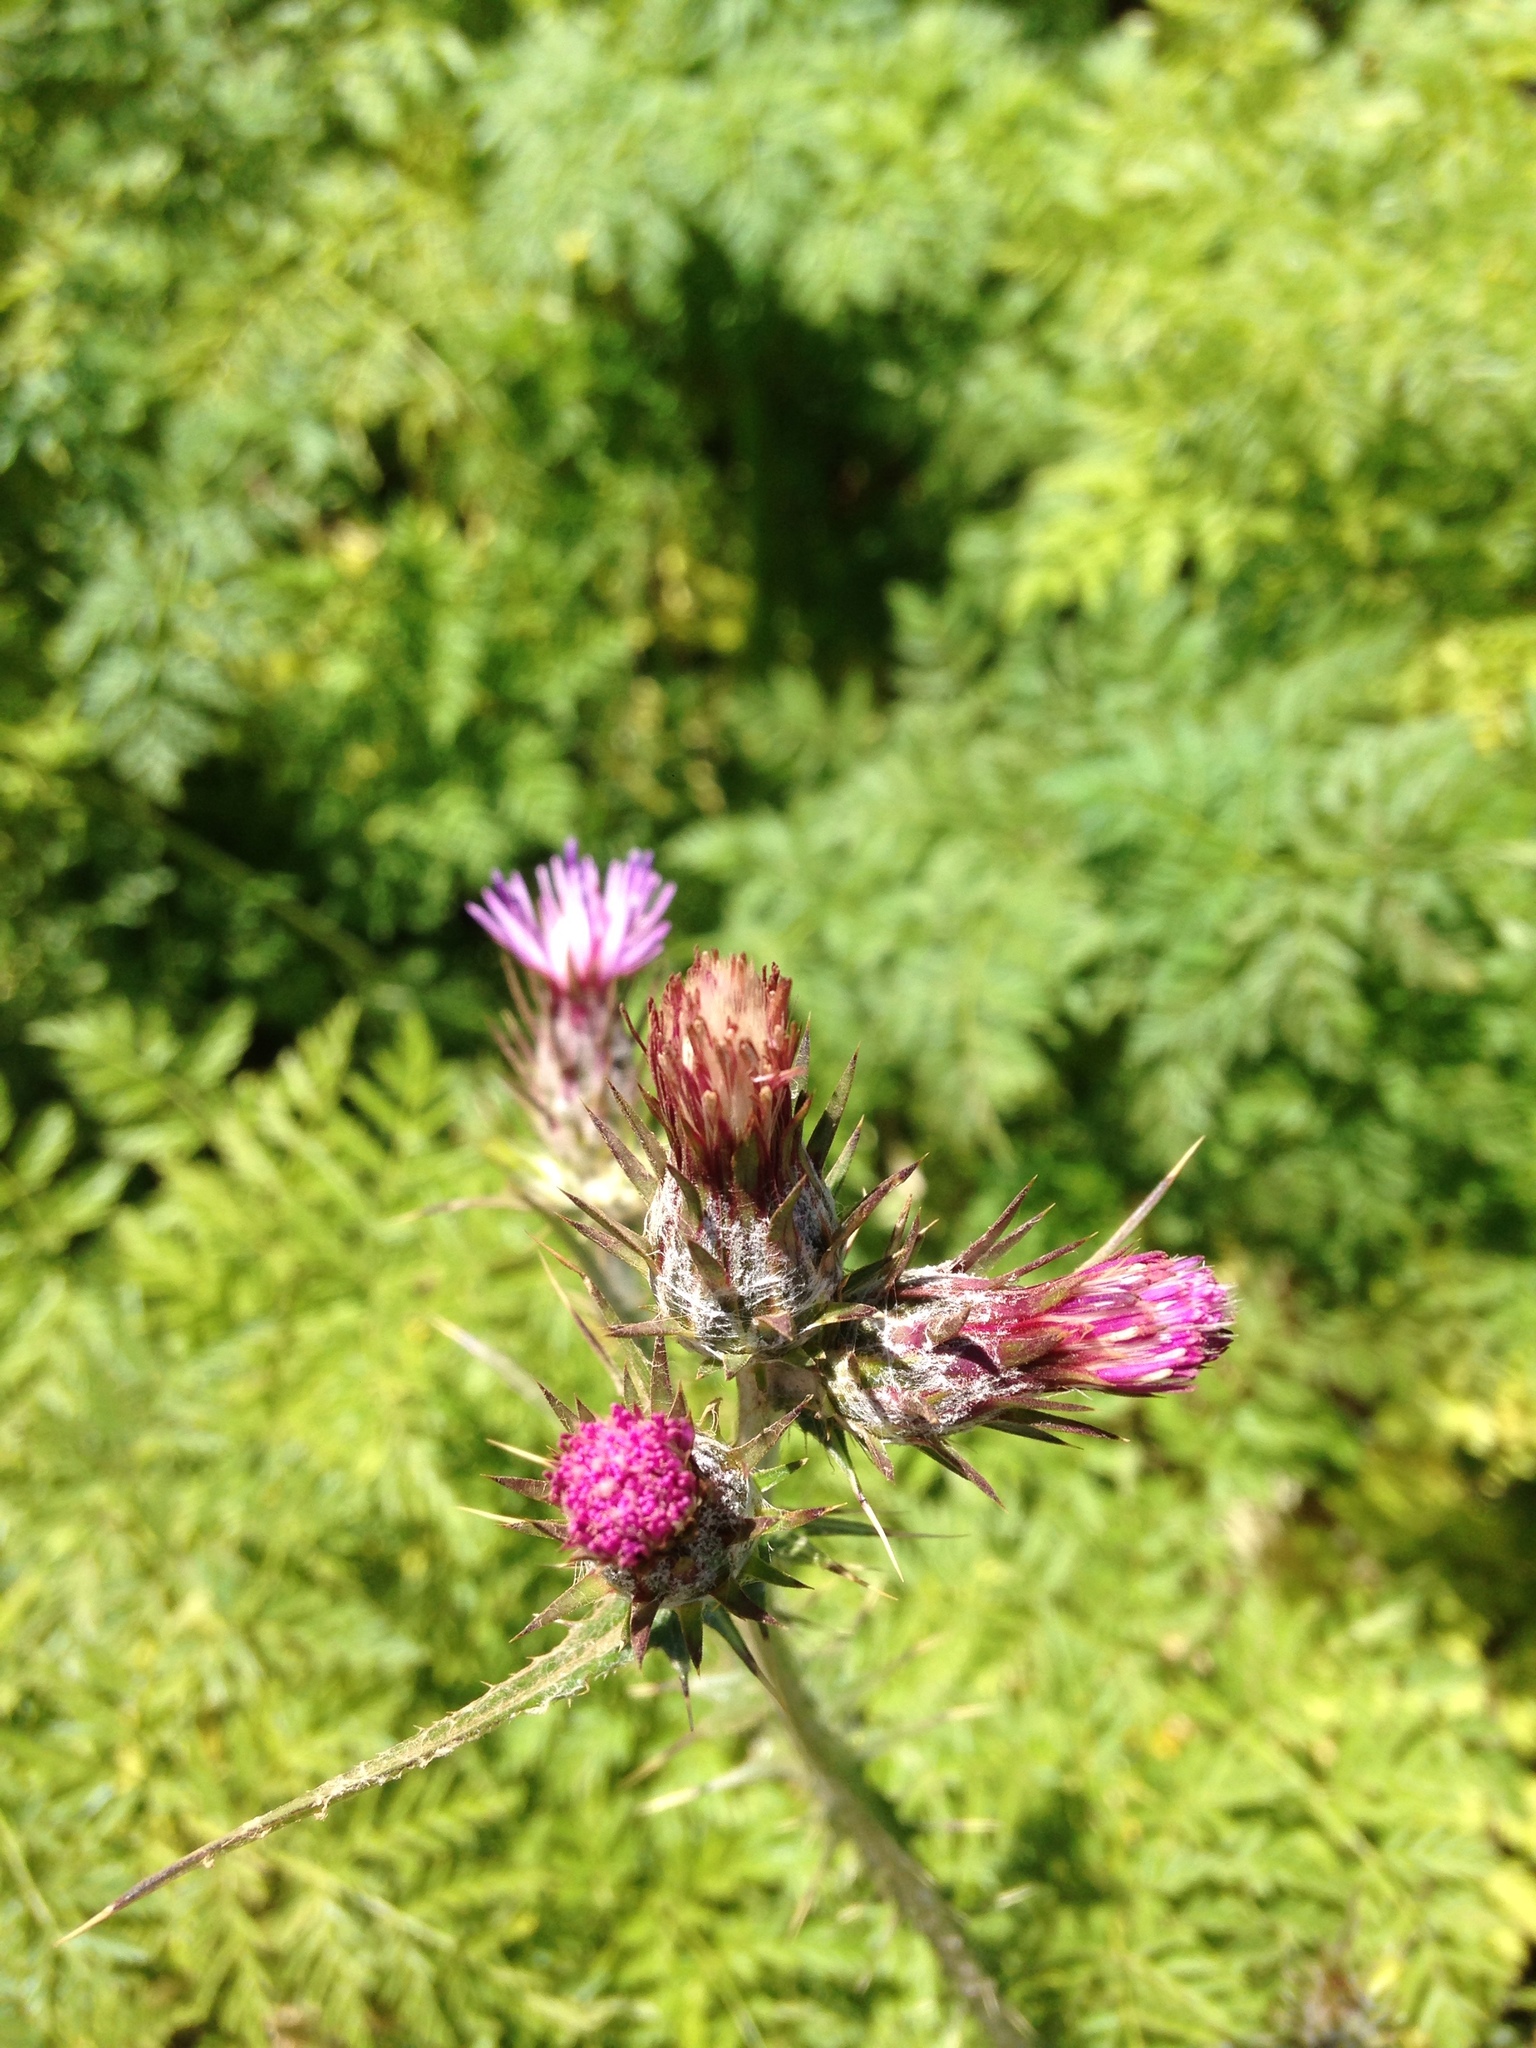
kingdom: Plantae
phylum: Tracheophyta
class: Magnoliopsida
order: Asterales
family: Asteraceae
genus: Carduus
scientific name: Carduus pycnocephalus
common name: Plymouth thistle
